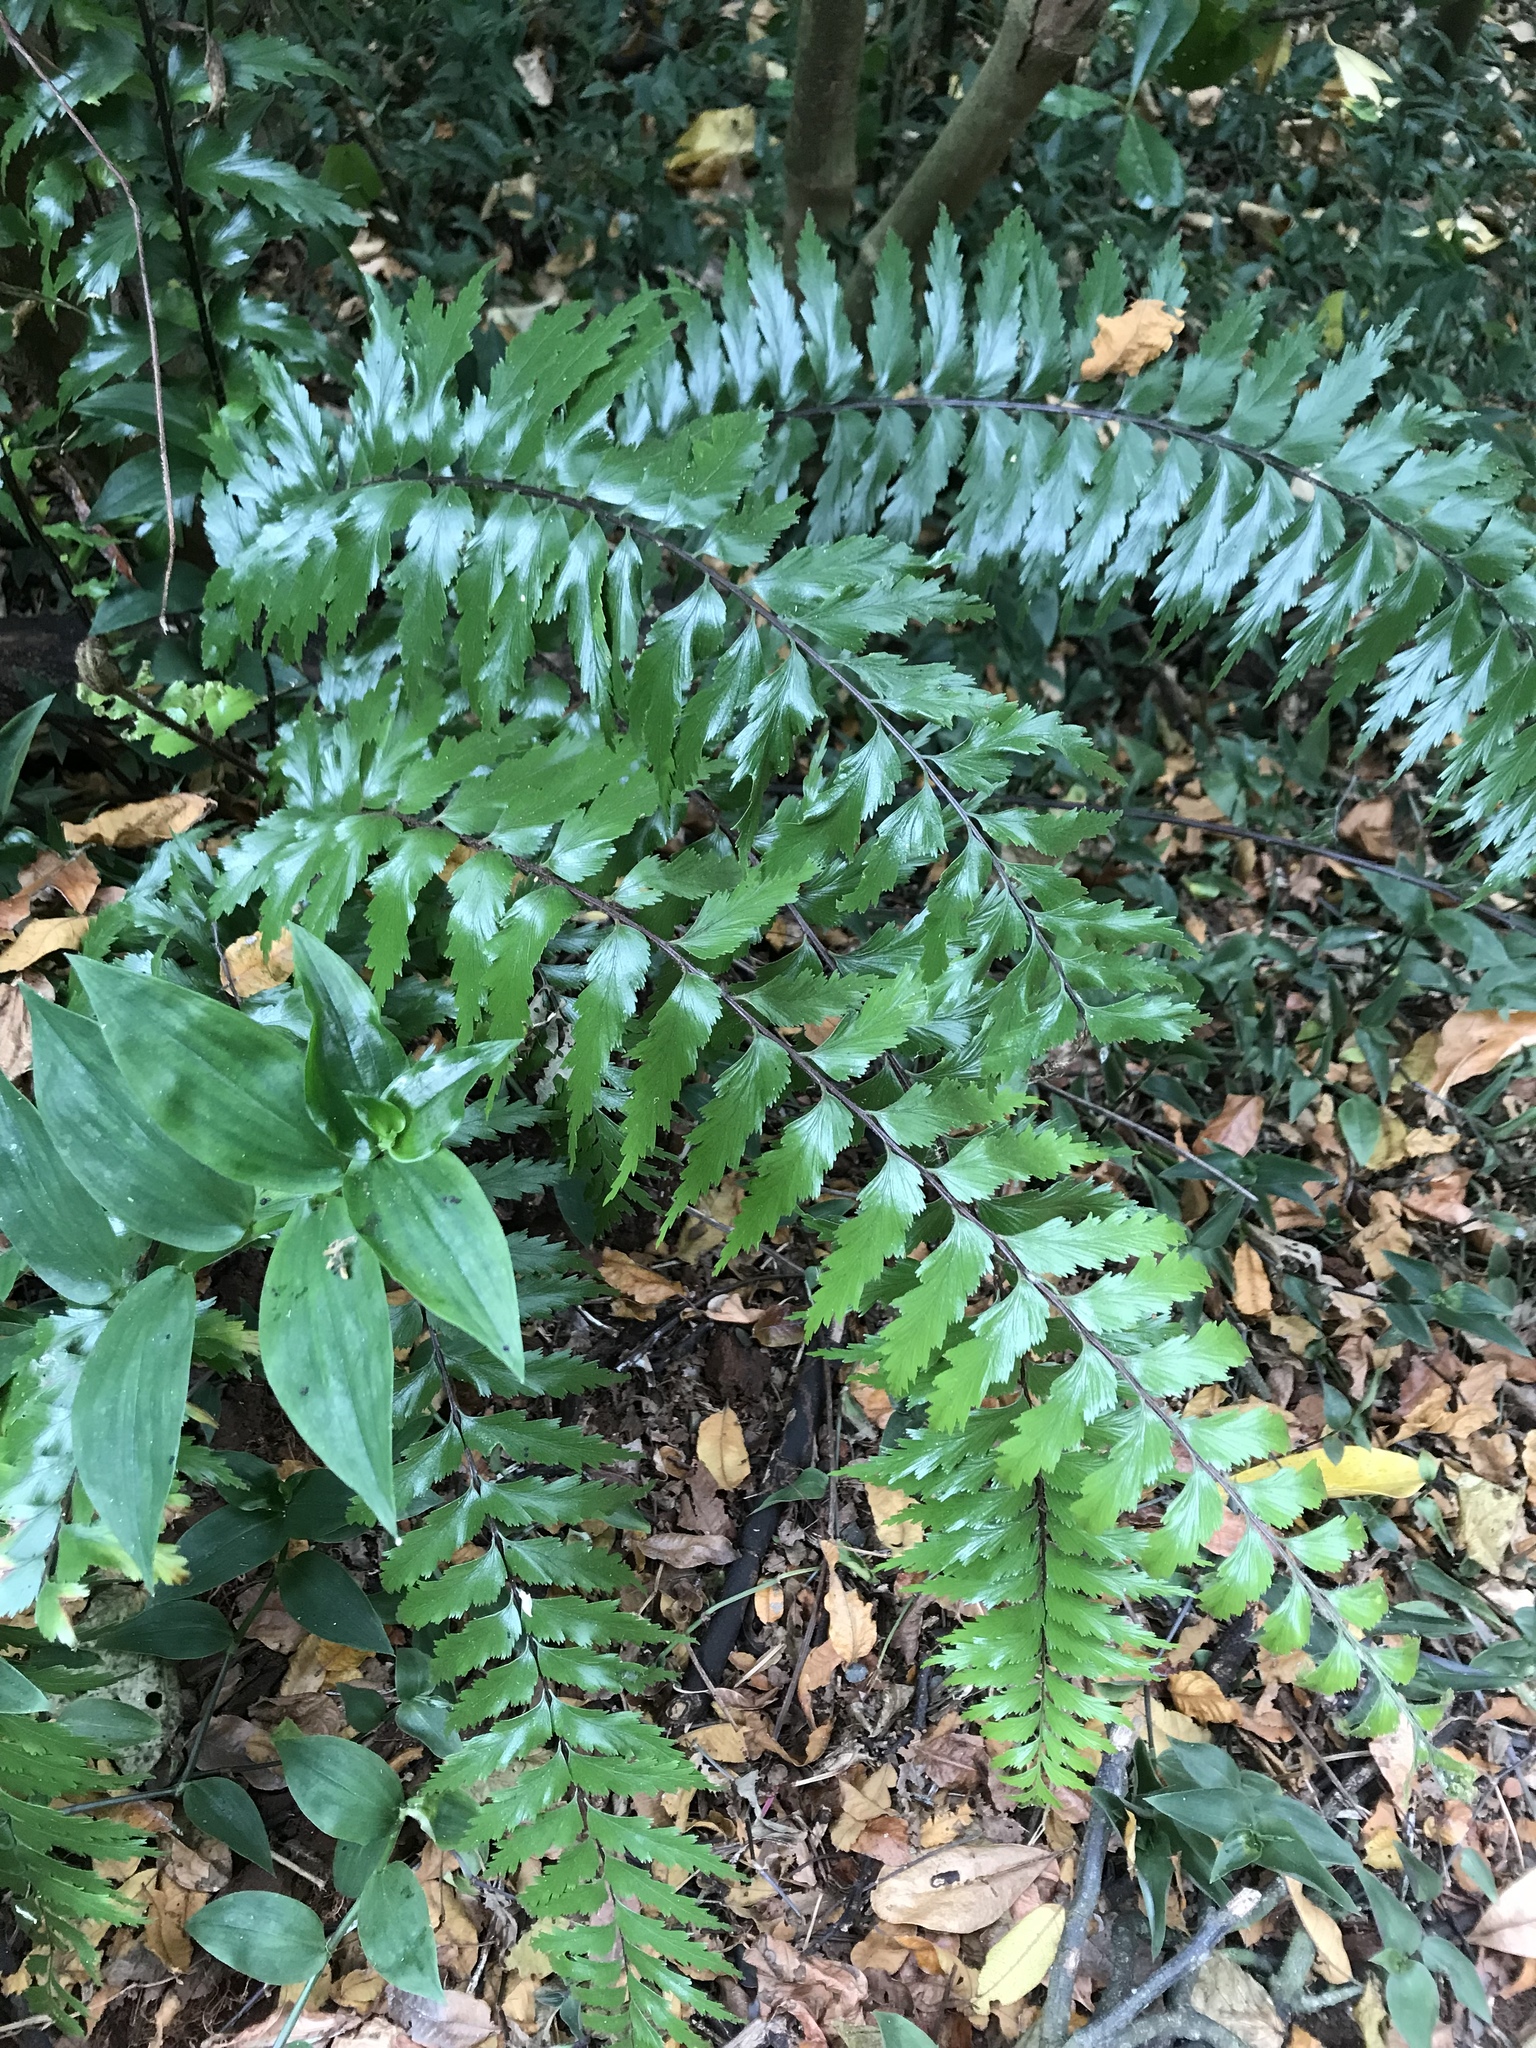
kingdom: Plantae
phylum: Tracheophyta
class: Polypodiopsida
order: Polypodiales
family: Aspleniaceae
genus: Asplenium
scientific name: Asplenium polyodon
